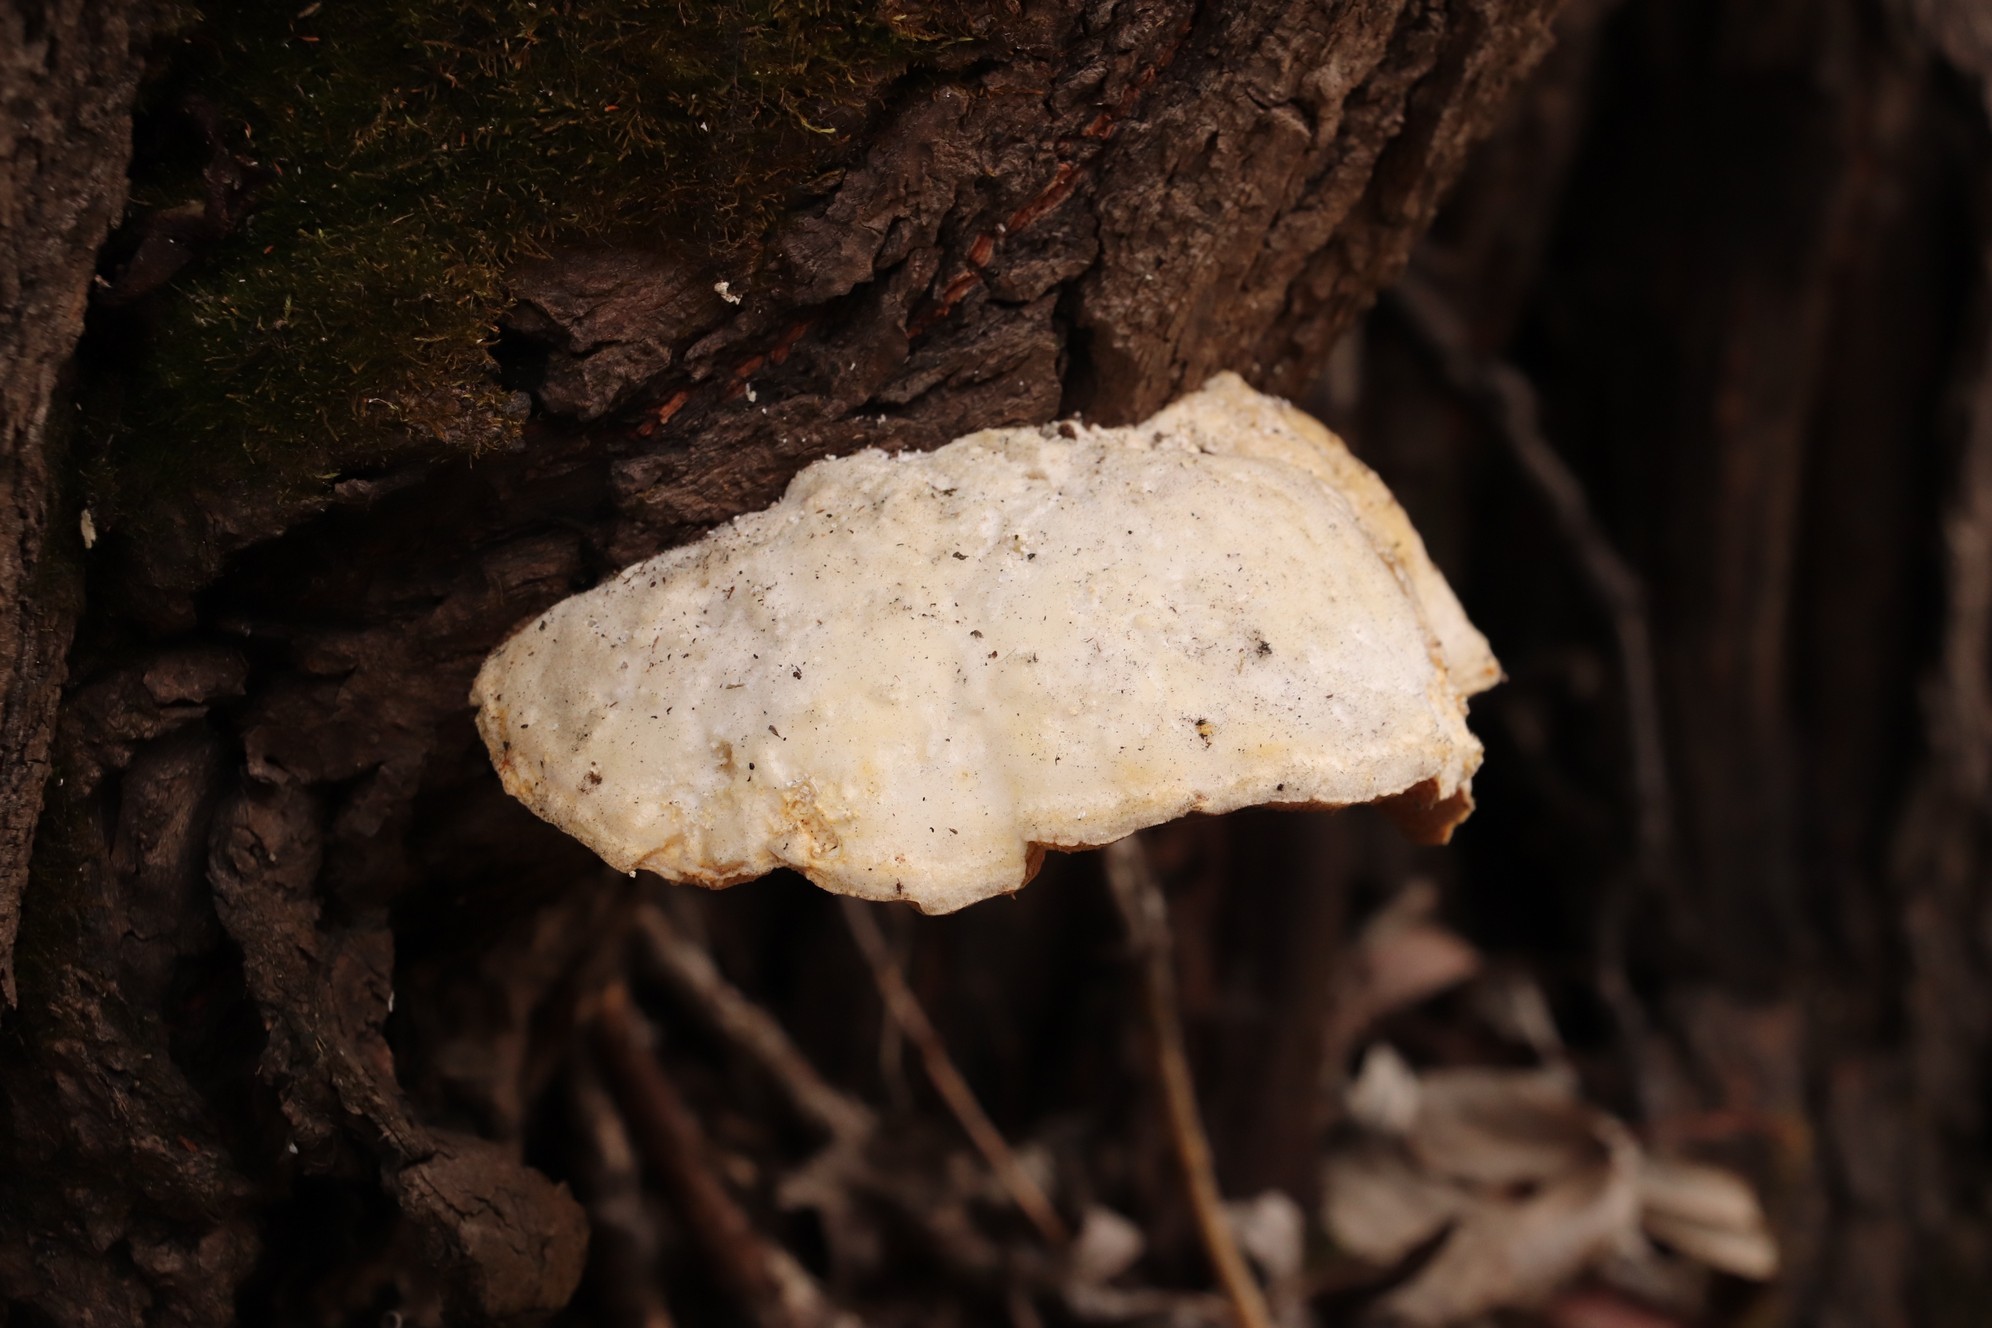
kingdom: Fungi
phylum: Basidiomycota
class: Agaricomycetes
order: Polyporales
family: Polyporaceae
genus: Trametes
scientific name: Trametes suaveolens
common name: Fragrant bracket
